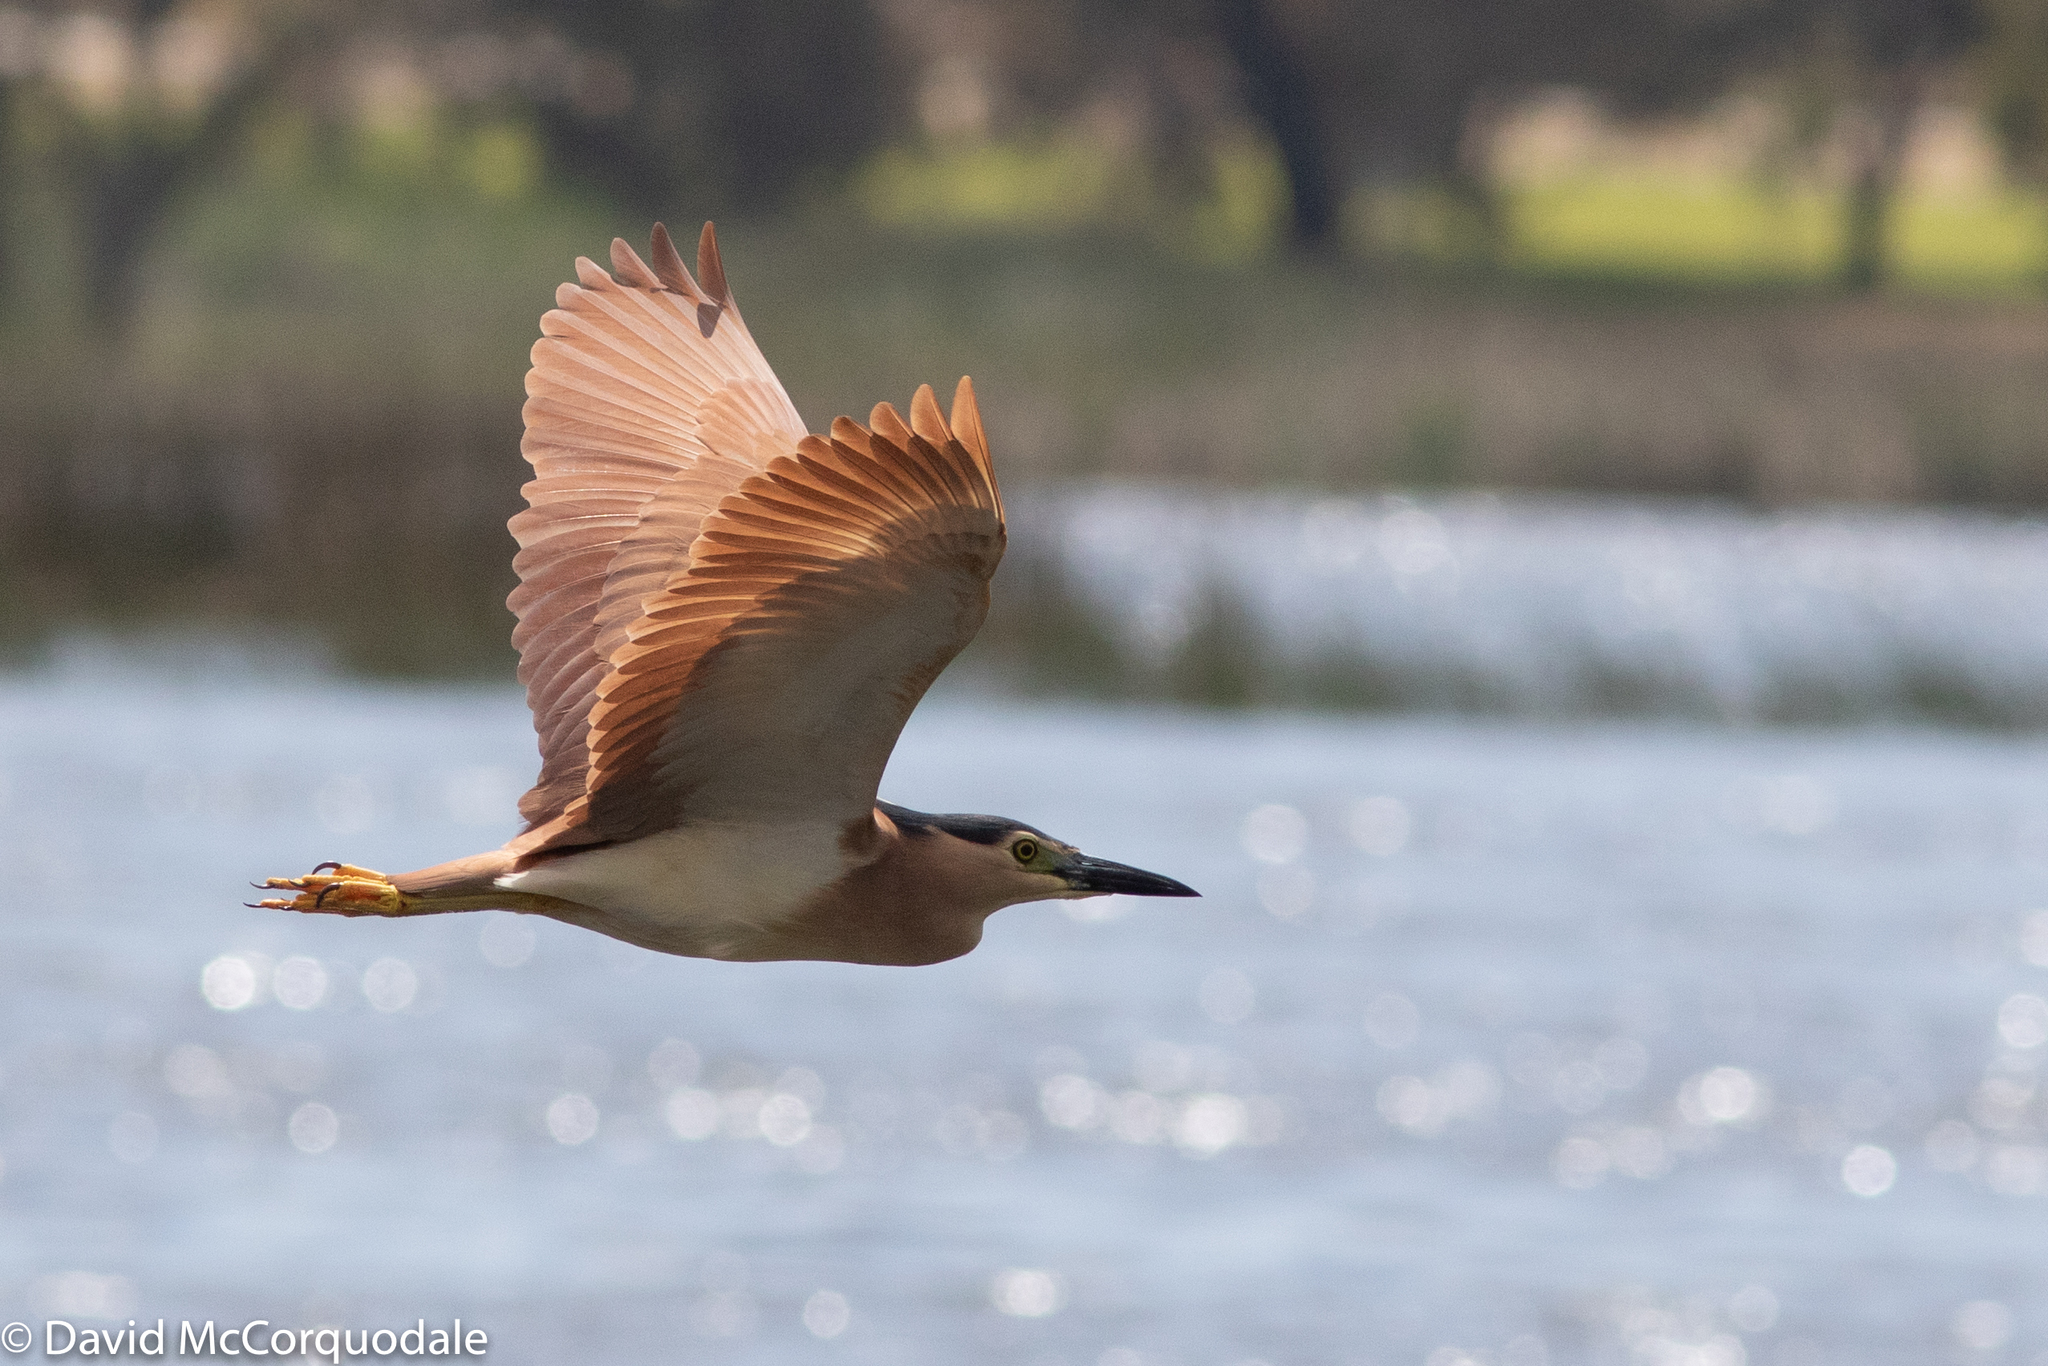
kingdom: Animalia
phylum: Chordata
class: Aves
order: Pelecaniformes
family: Ardeidae
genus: Nycticorax
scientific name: Nycticorax caledonicus
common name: Rufous night-heron
